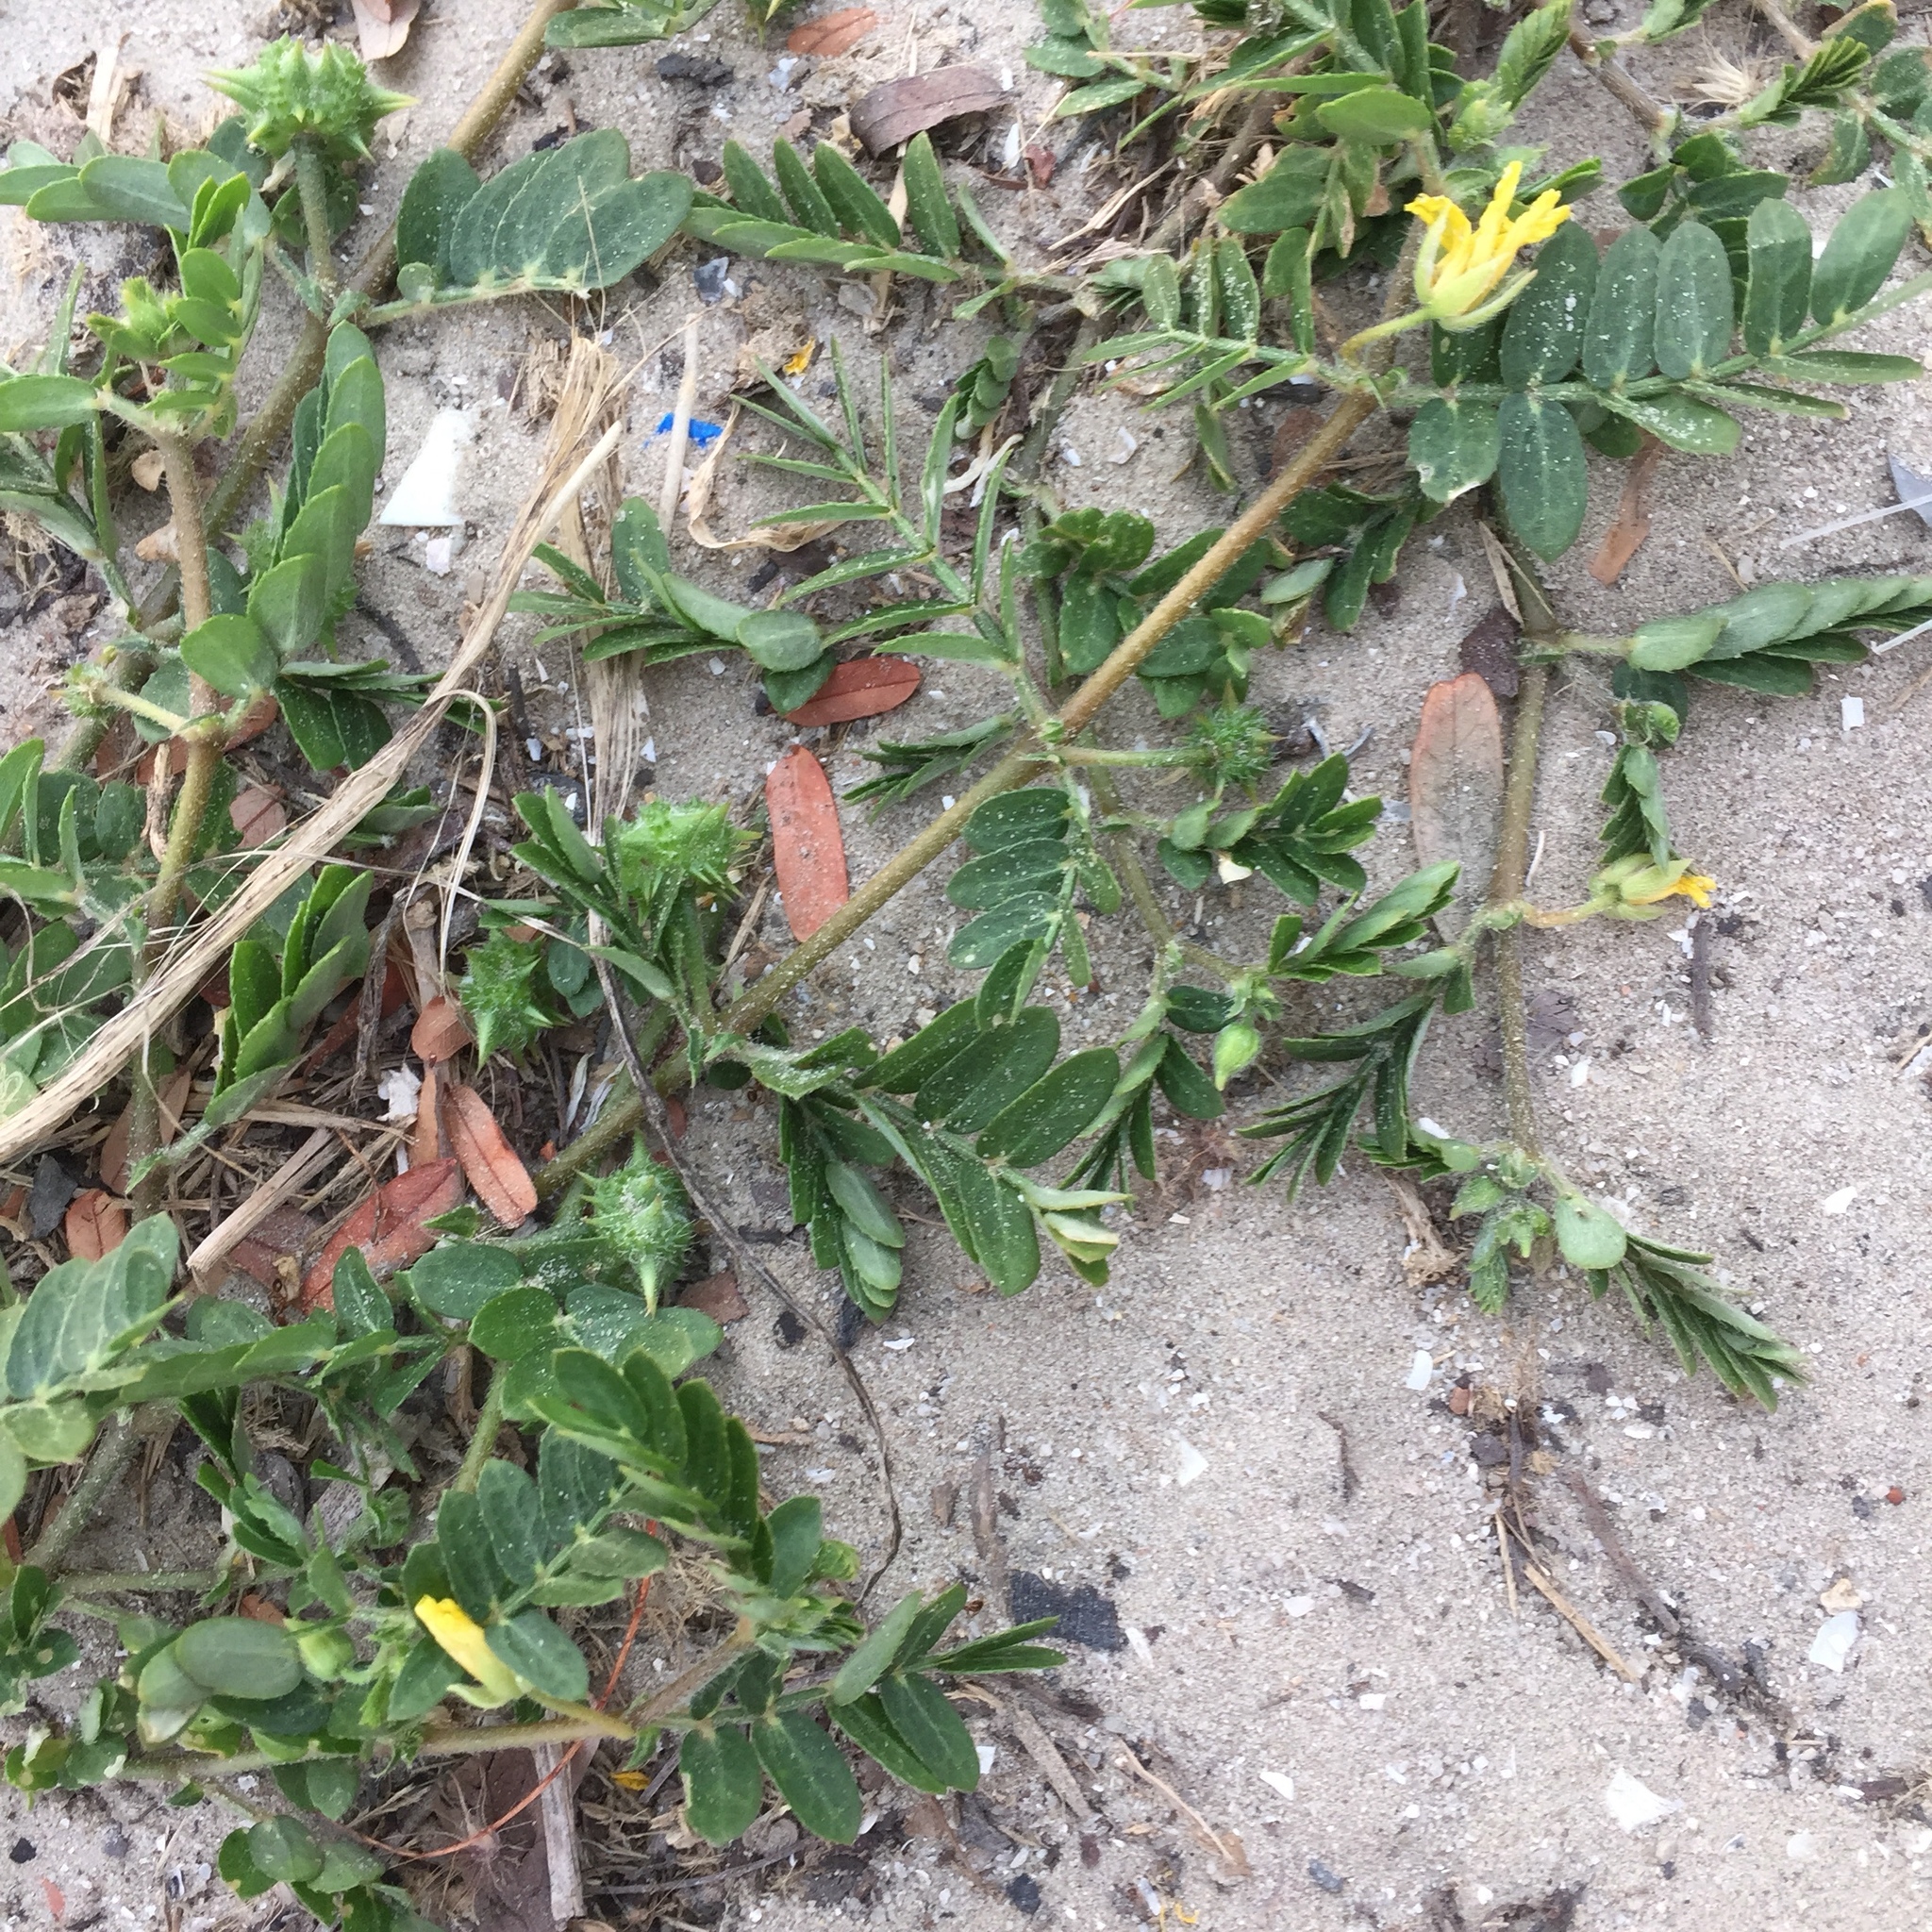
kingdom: Plantae
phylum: Tracheophyta
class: Magnoliopsida
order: Zygophyllales
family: Zygophyllaceae
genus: Tribulus
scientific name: Tribulus terrestris
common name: Puncturevine
